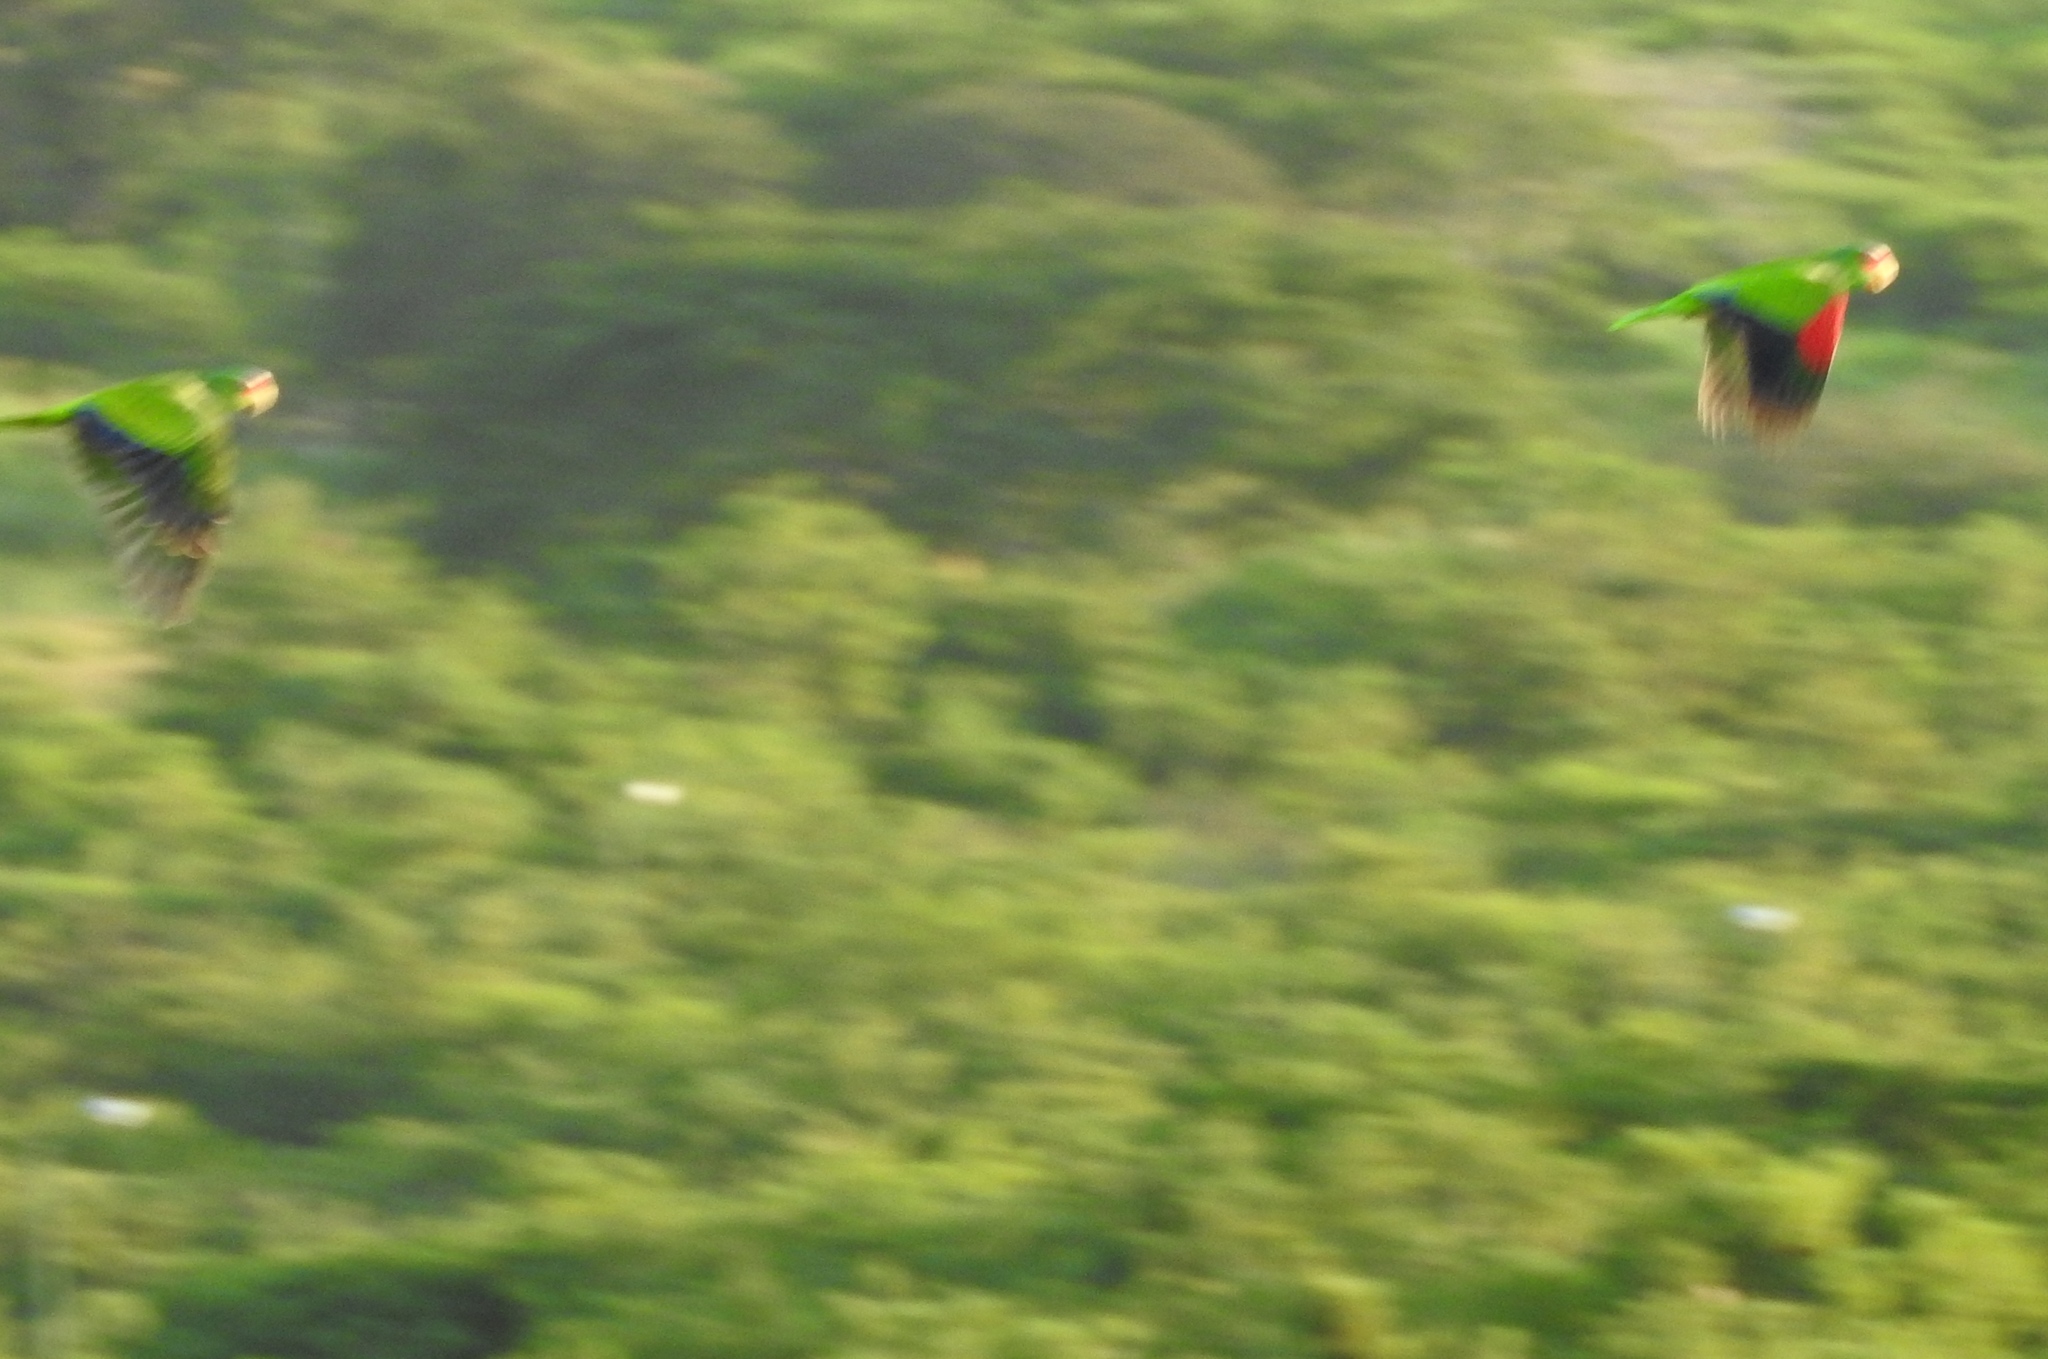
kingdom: Animalia
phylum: Chordata
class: Aves
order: Psittaciformes
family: Psittacidae
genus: Amazona
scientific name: Amazona albifrons
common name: White-fronted amazon
